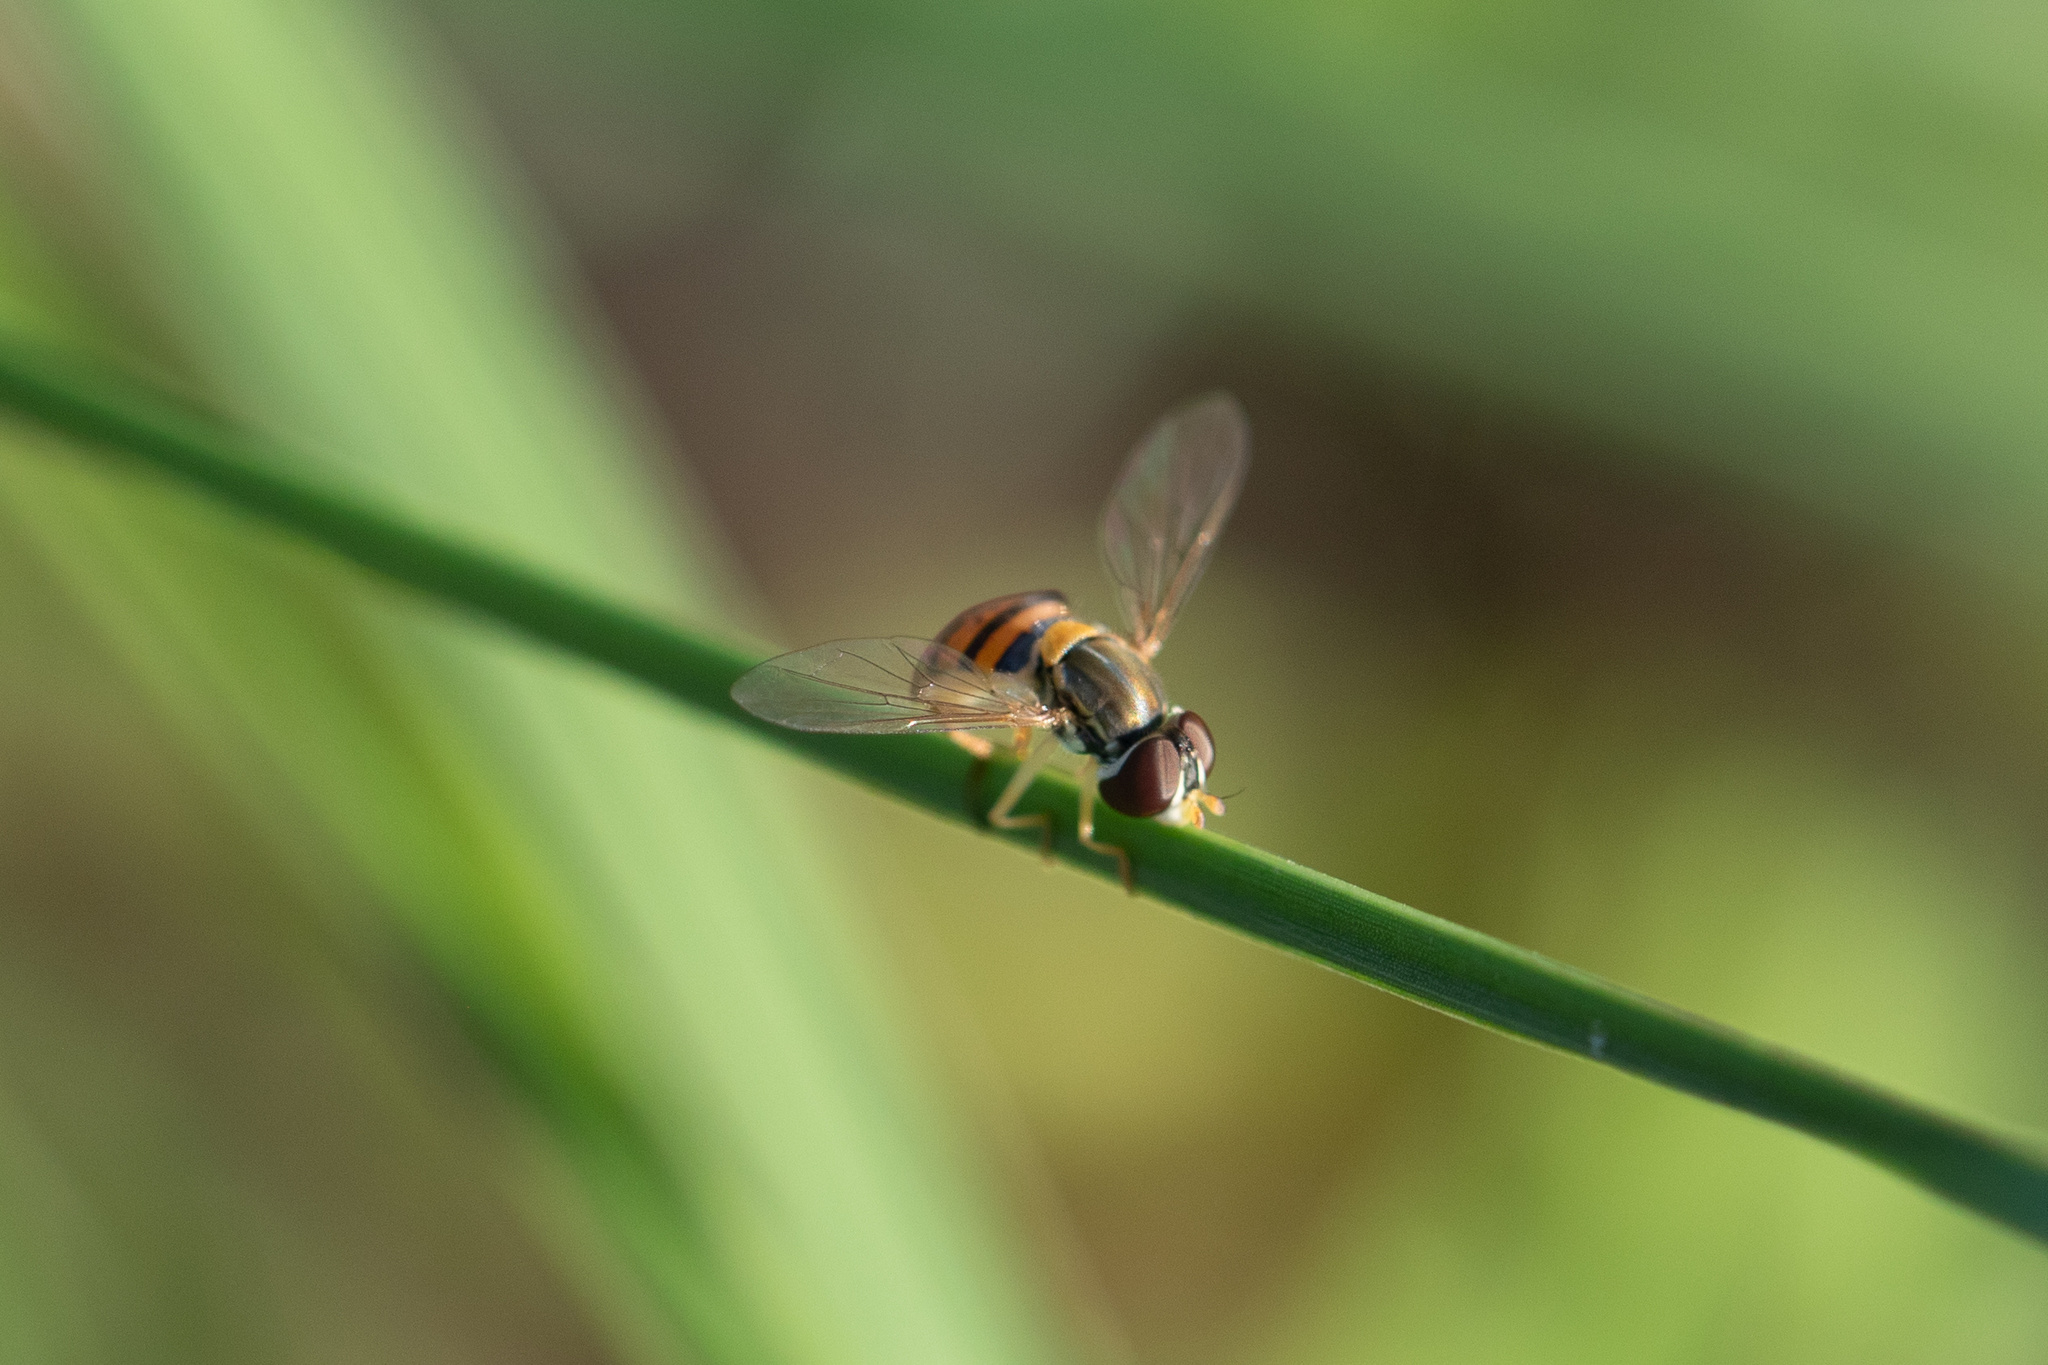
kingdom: Animalia
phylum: Arthropoda
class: Insecta
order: Diptera
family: Syrphidae
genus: Toxomerus
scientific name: Toxomerus corbis
